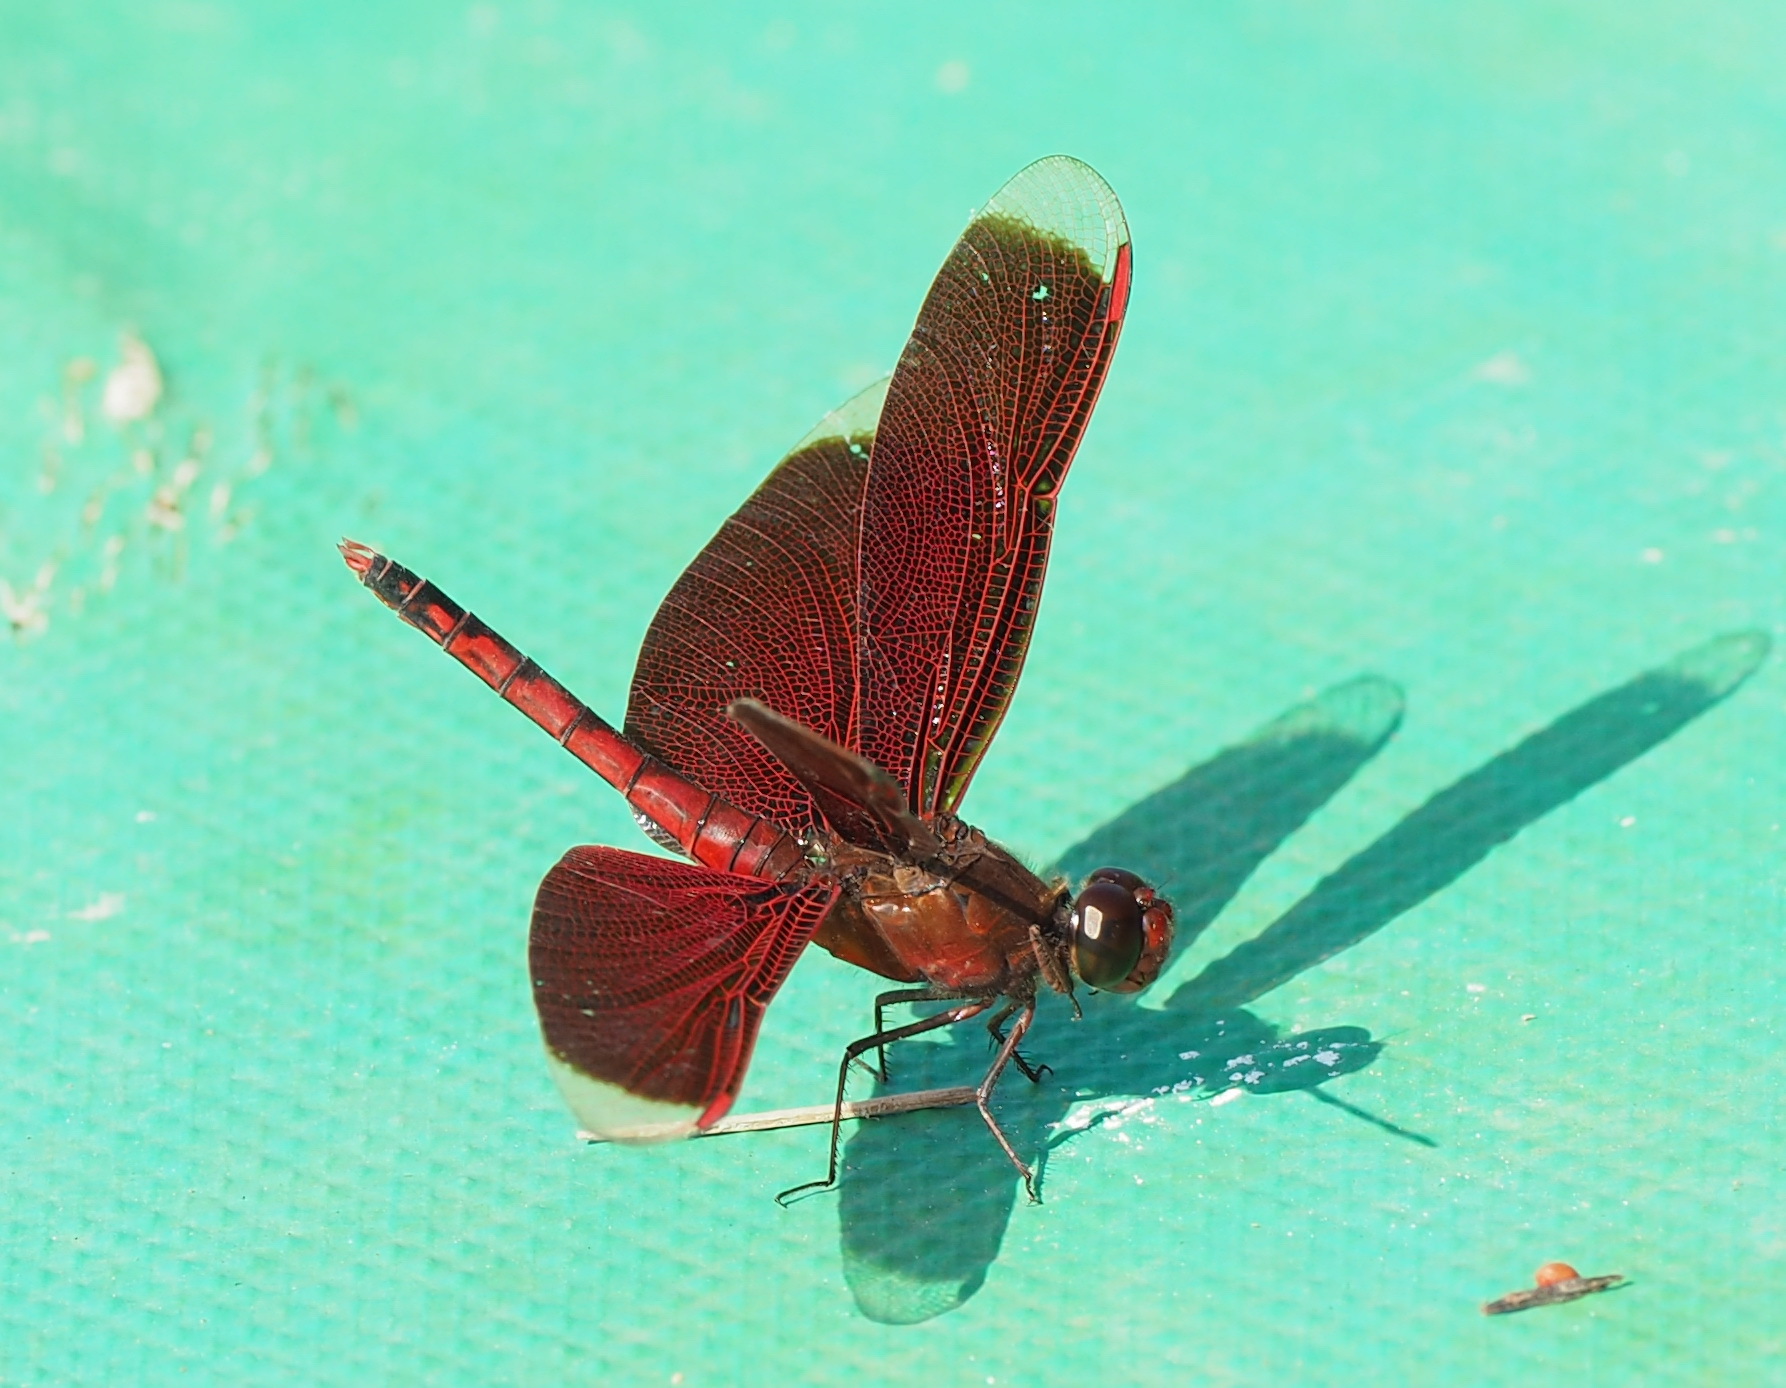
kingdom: Animalia
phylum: Arthropoda
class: Insecta
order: Odonata
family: Libellulidae
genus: Neurothemis
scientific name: Neurothemis taiwanensis
